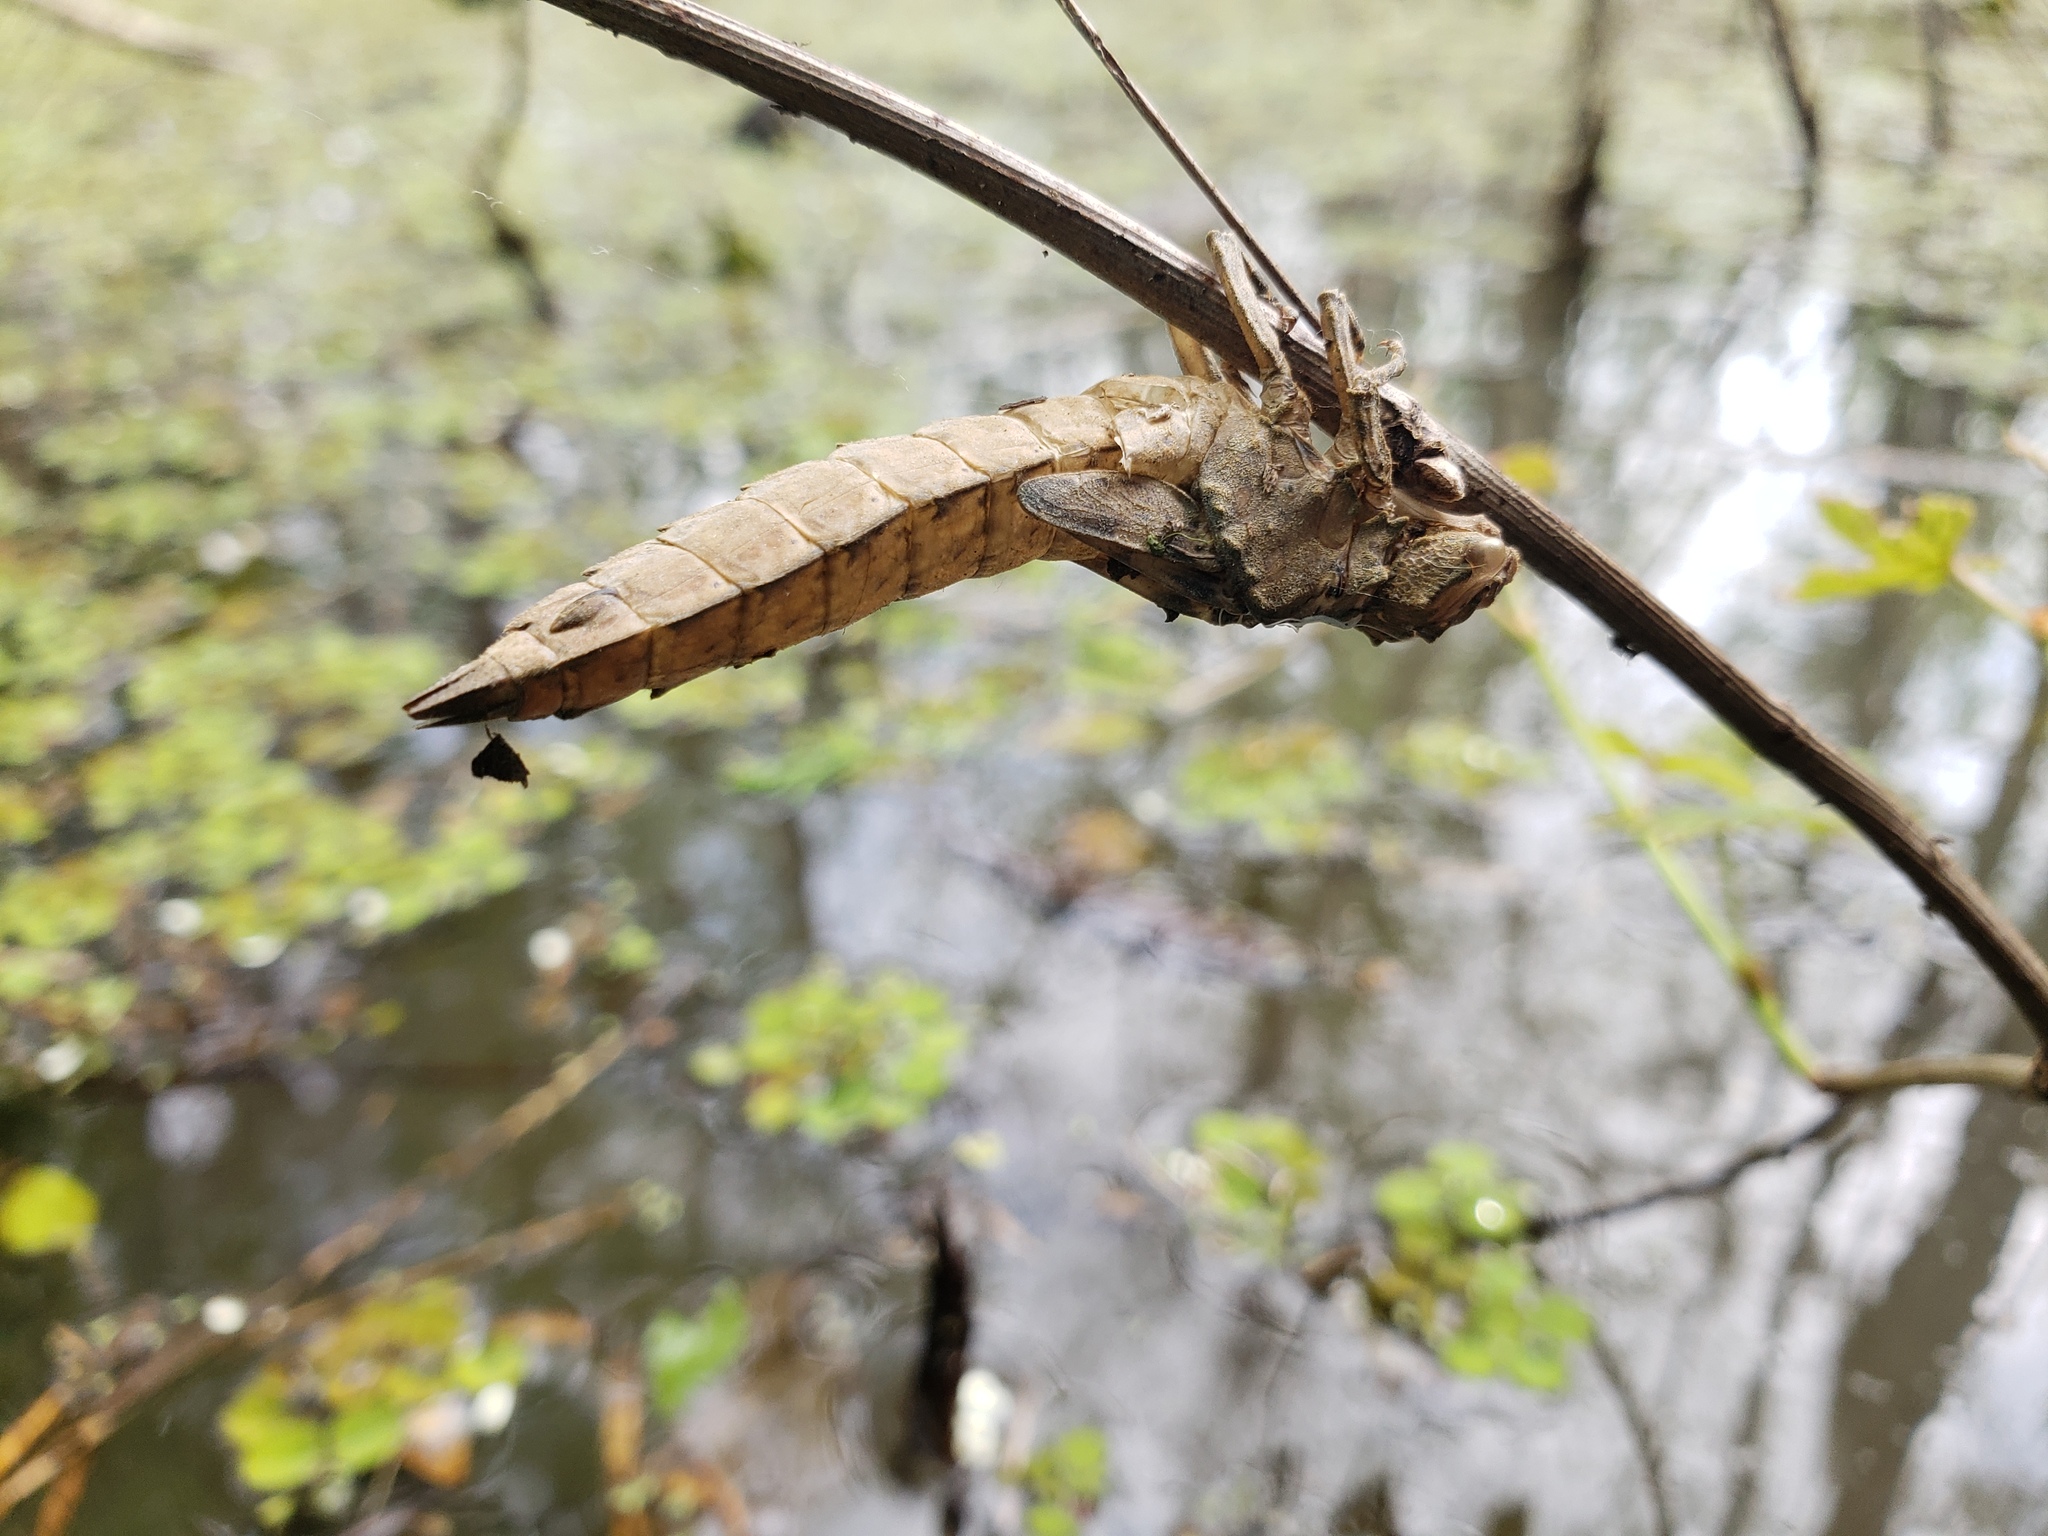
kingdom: Animalia
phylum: Arthropoda
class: Insecta
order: Odonata
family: Aeshnidae
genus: Nasiaeschna
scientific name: Nasiaeschna pentacantha
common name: Cyrano darner
